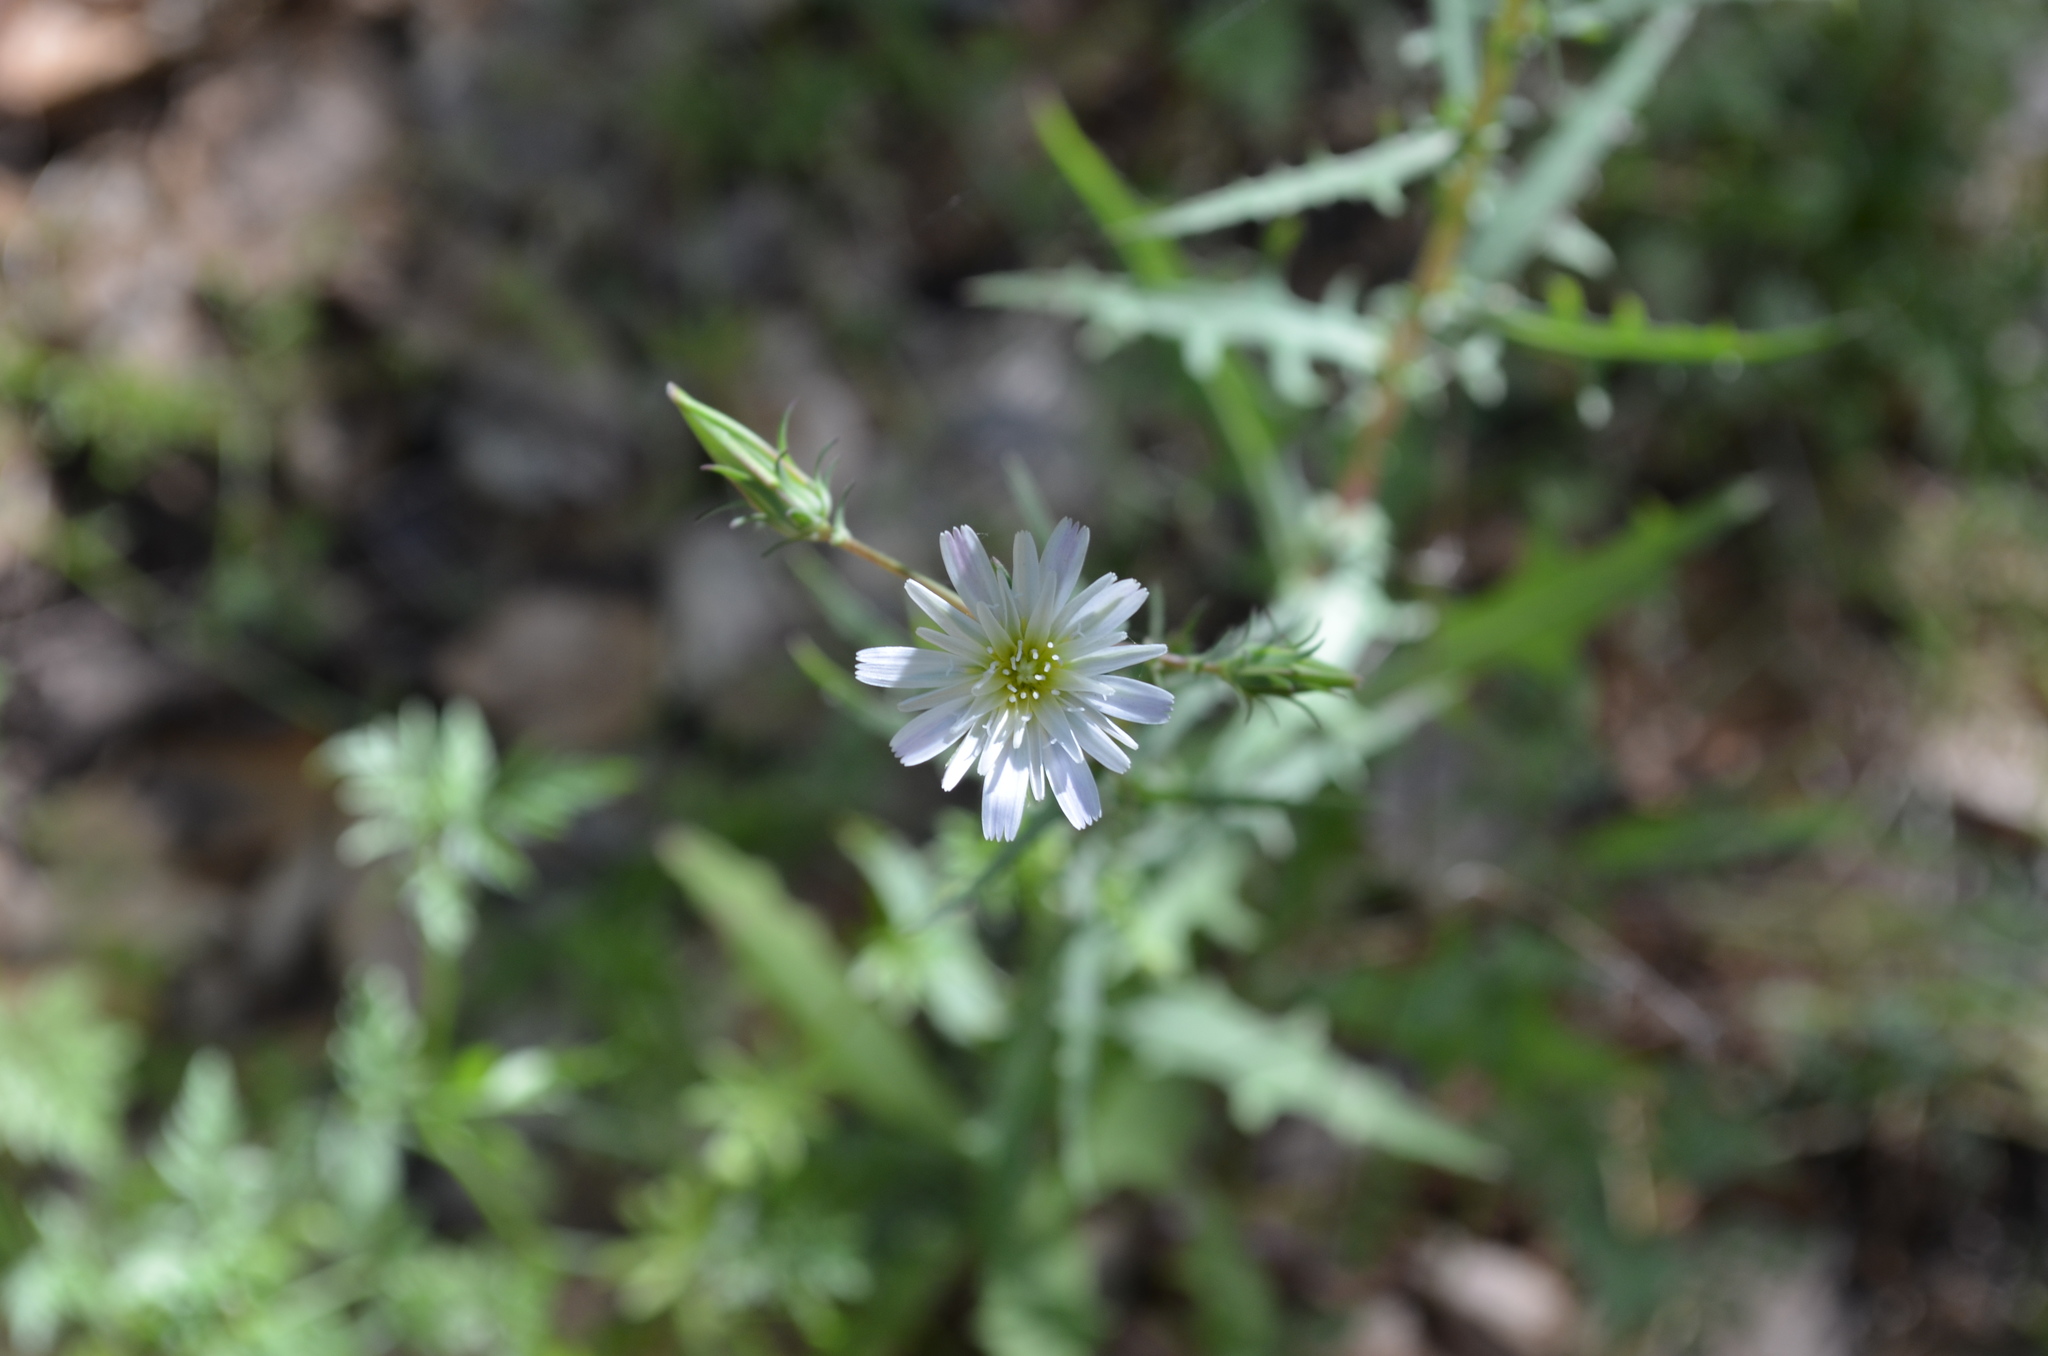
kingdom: Plantae
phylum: Tracheophyta
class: Magnoliopsida
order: Asterales
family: Asteraceae
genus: Rafinesquia
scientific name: Rafinesquia californica
